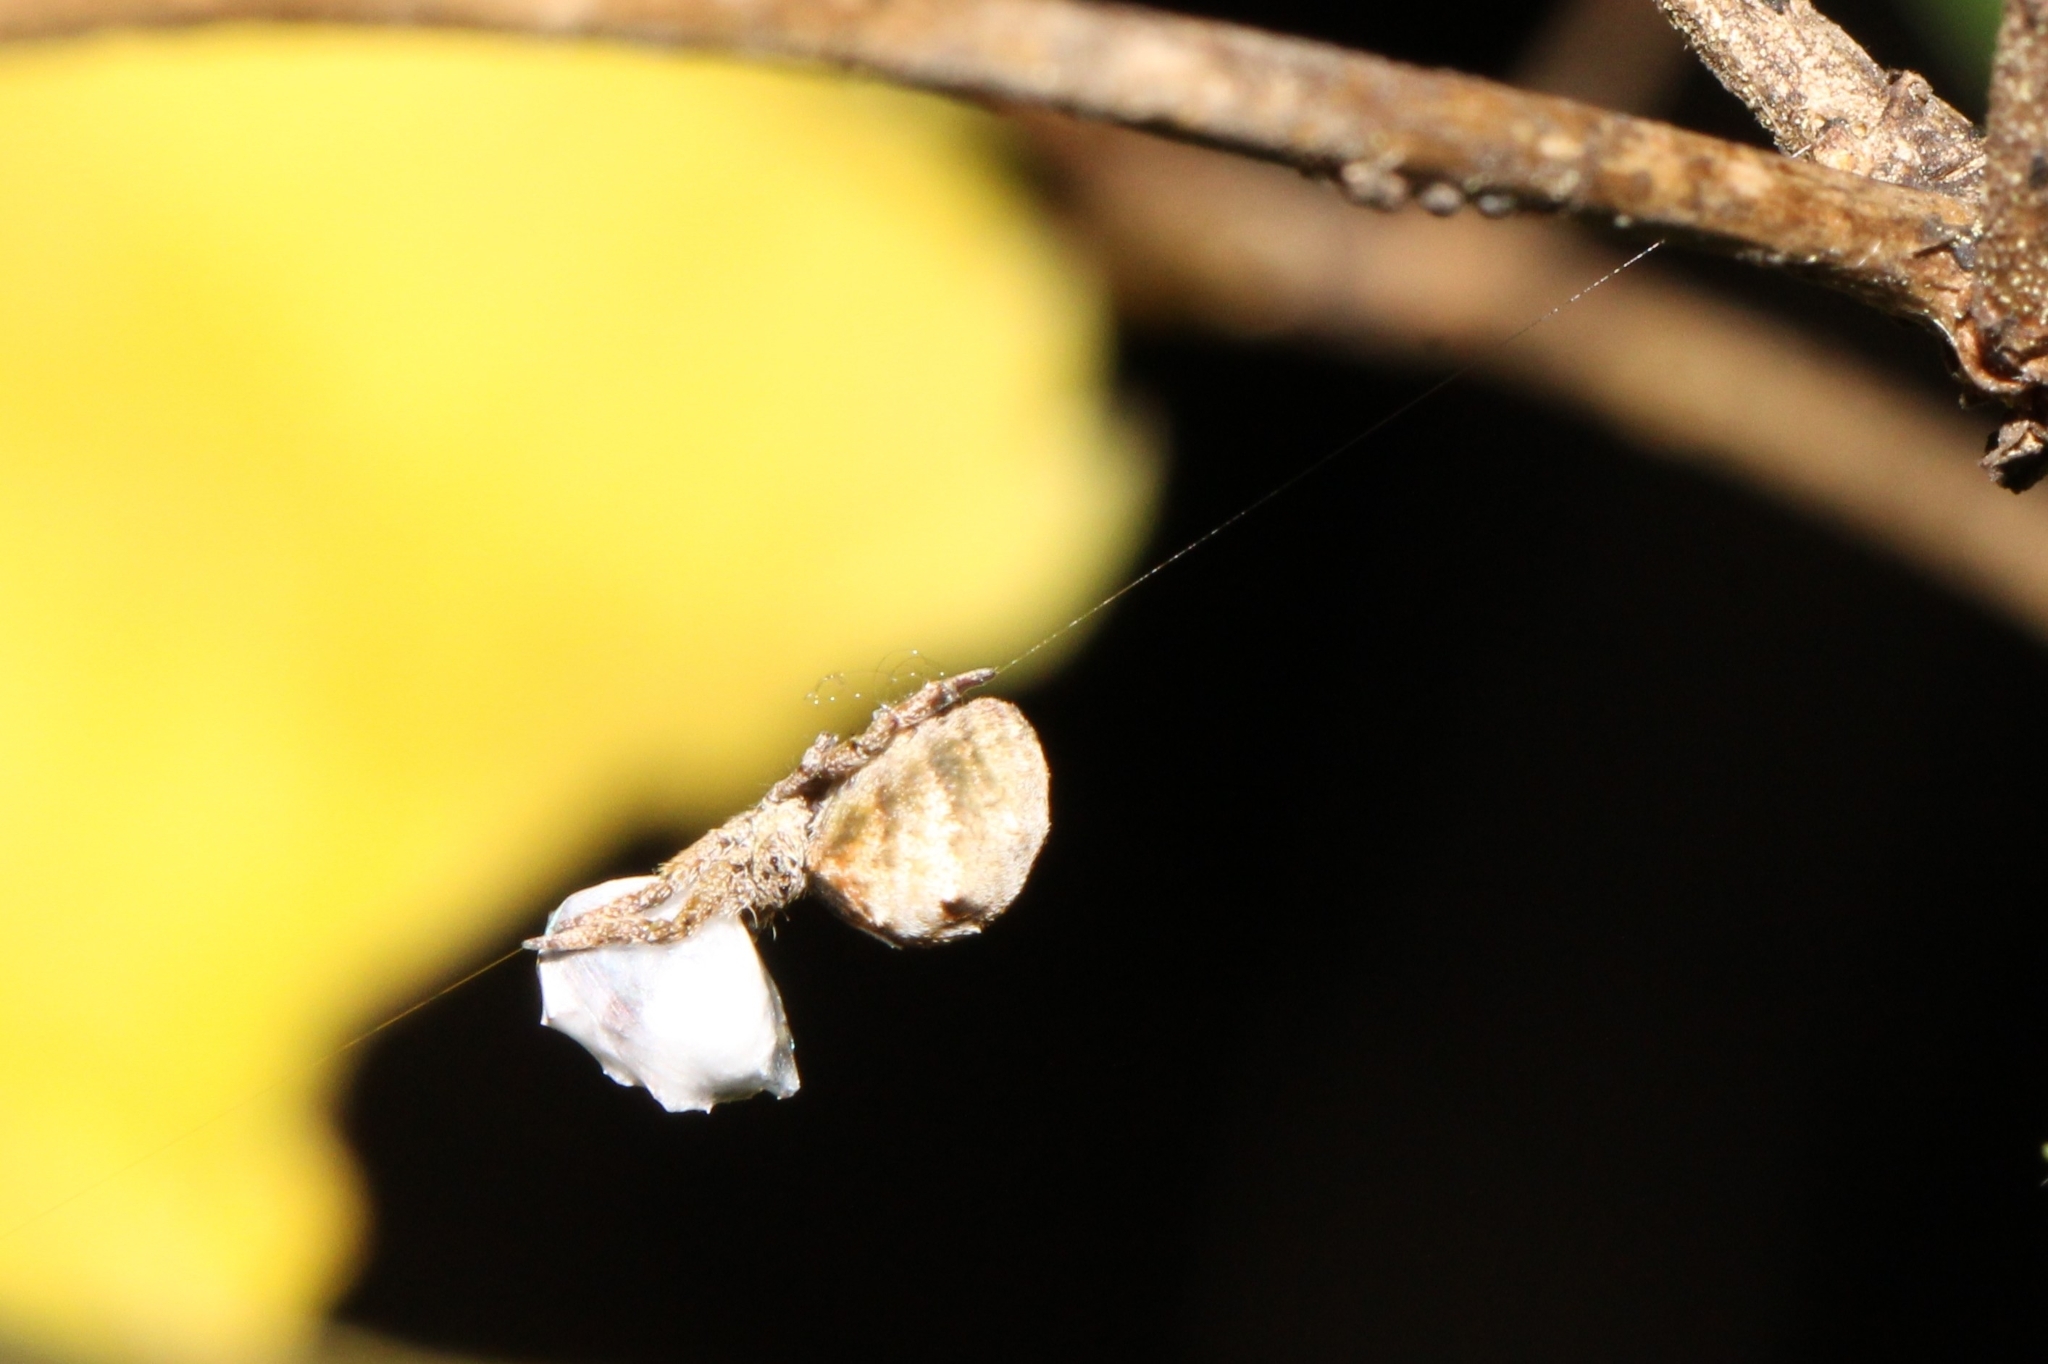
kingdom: Animalia
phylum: Arthropoda
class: Arachnida
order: Araneae
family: Uloboridae
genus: Hyptiotes
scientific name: Hyptiotes cavatus
